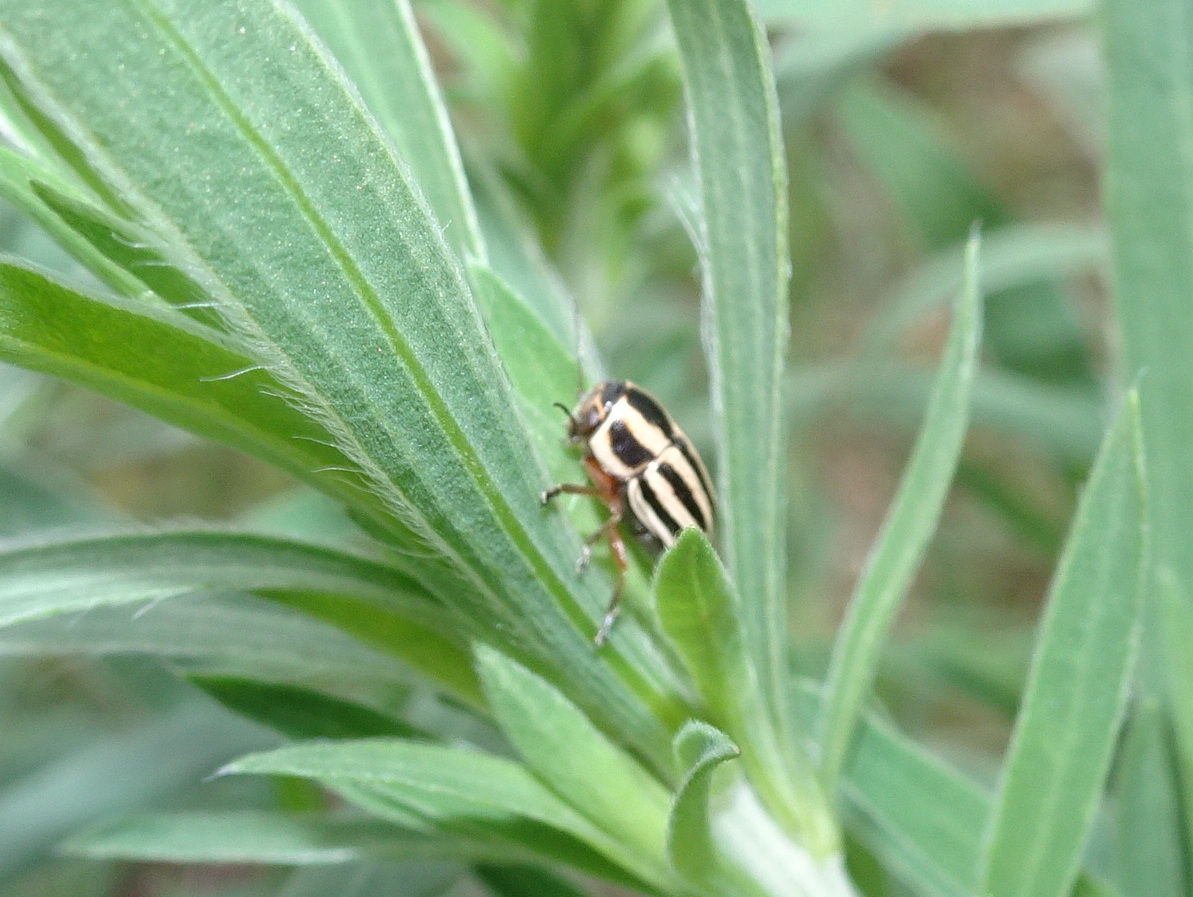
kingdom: Animalia
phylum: Arthropoda
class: Insecta
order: Coleoptera
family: Chrysomelidae
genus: Pachybrachis
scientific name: Pachybrachis virgatus
